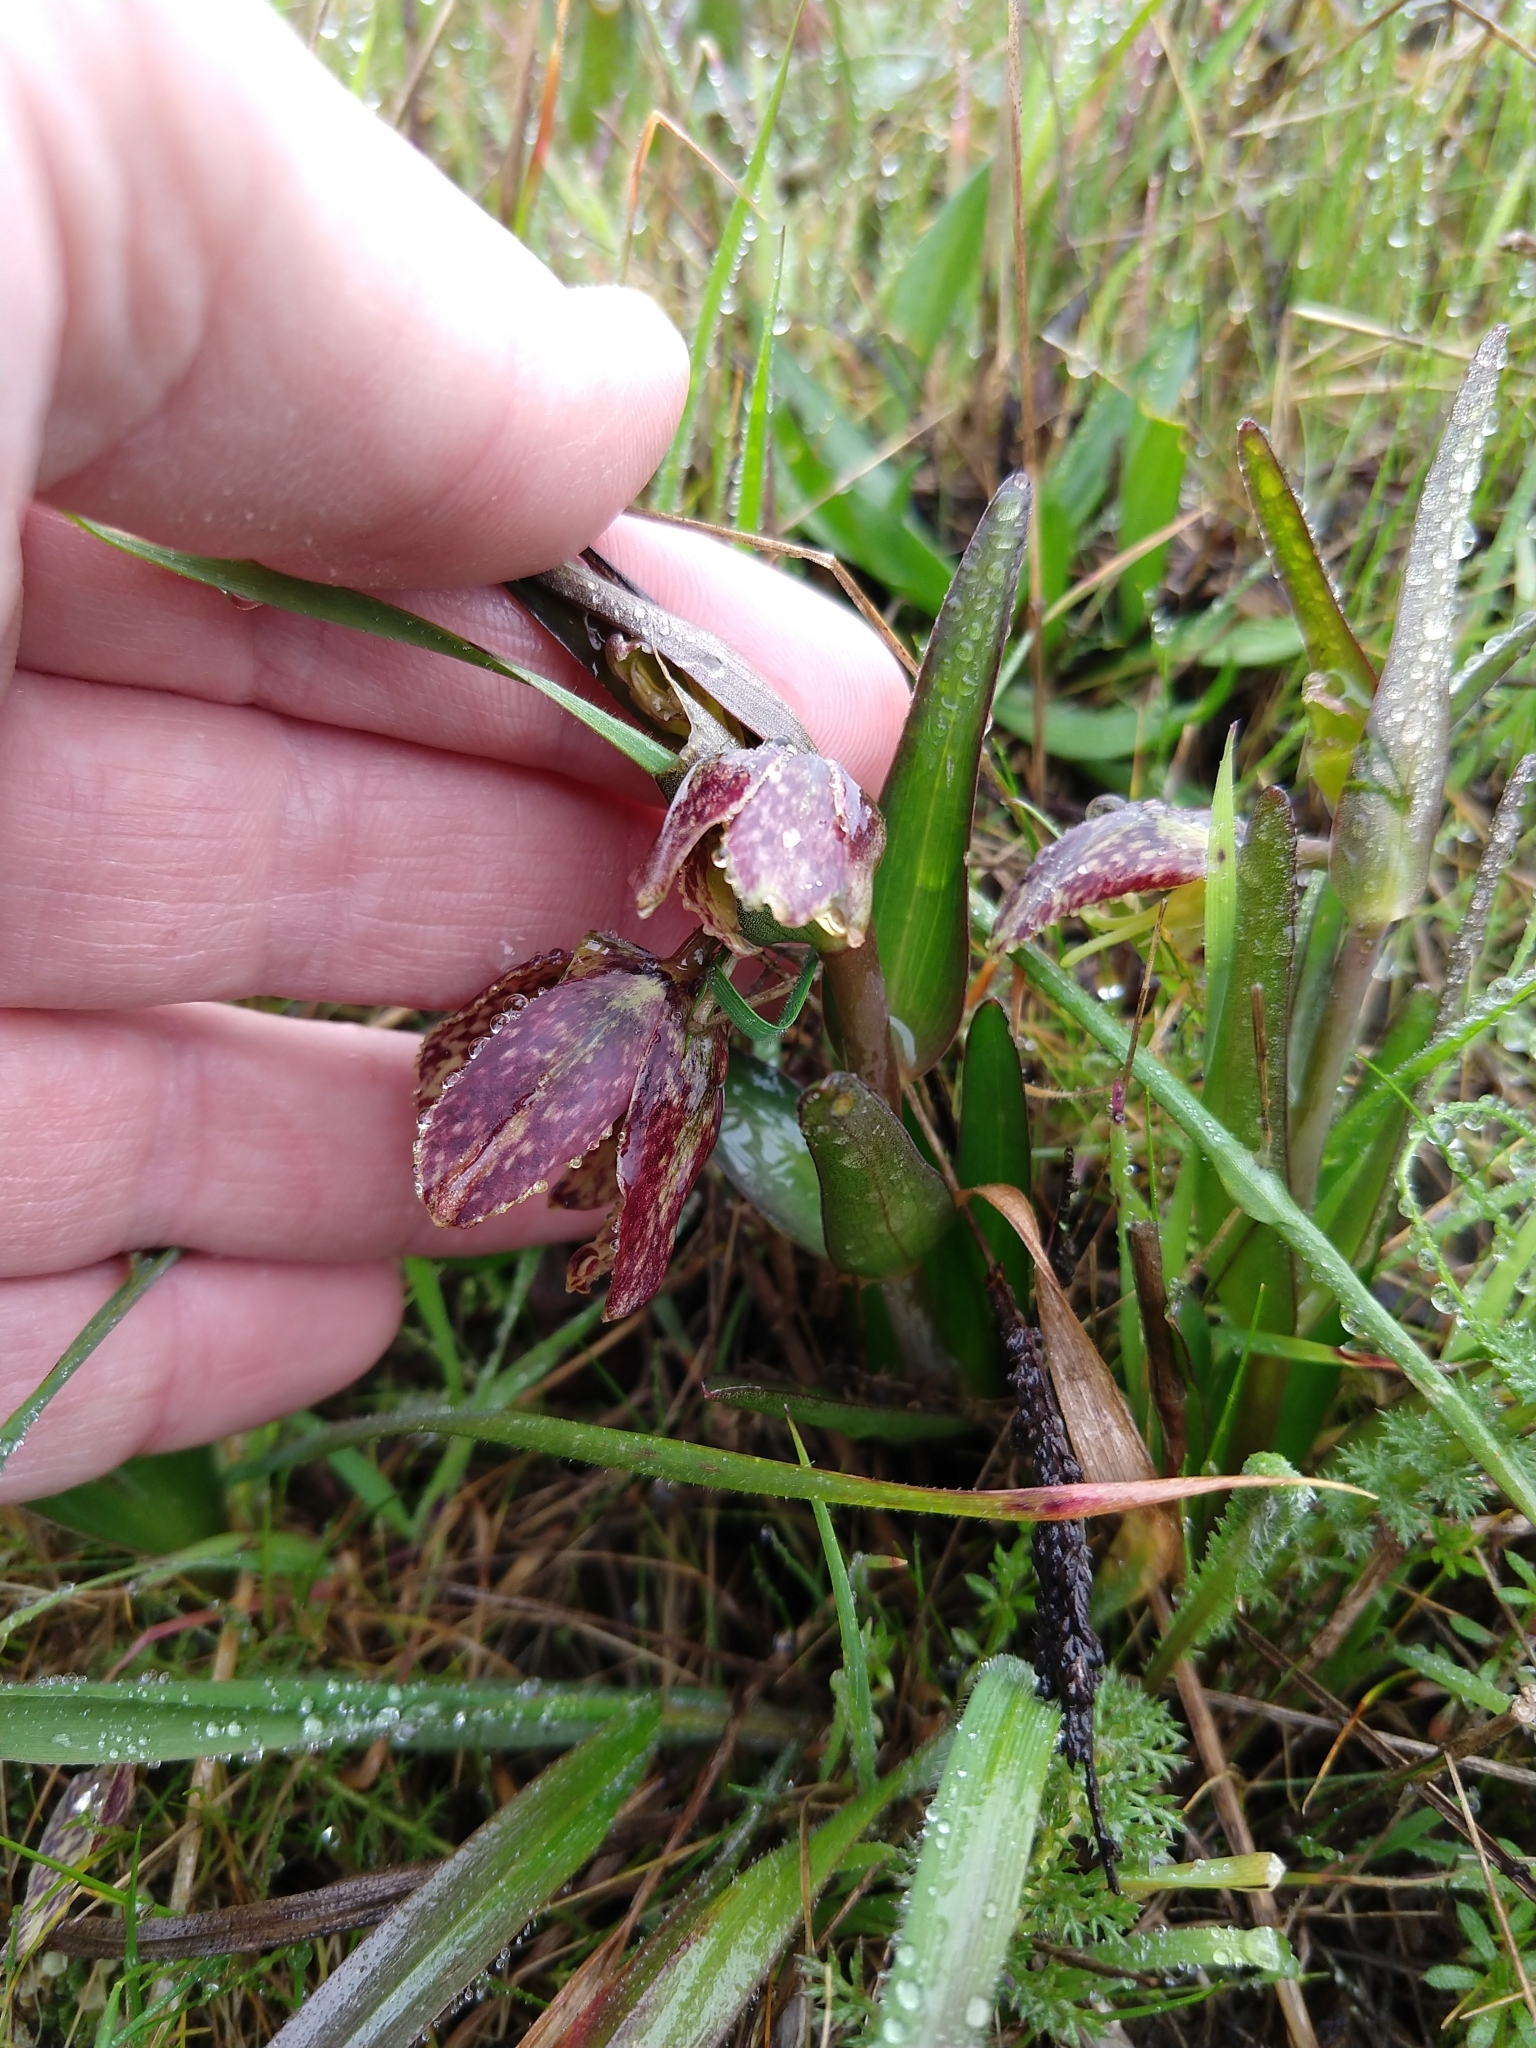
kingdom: Plantae
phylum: Tracheophyta
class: Liliopsida
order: Liliales
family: Liliaceae
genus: Fritillaria
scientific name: Fritillaria affinis
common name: Ojai fritillary
